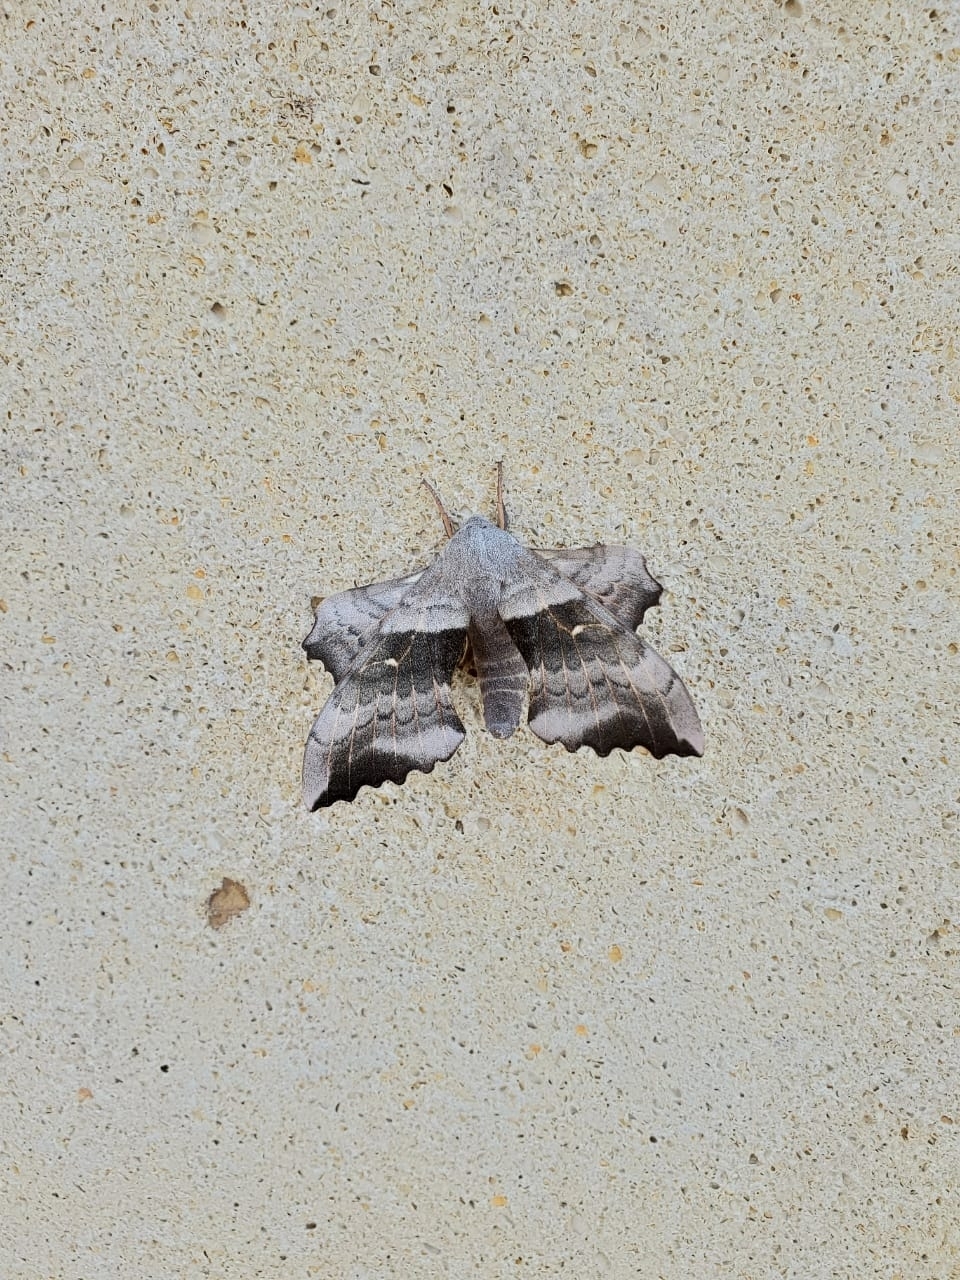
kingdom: Animalia
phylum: Arthropoda
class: Insecta
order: Lepidoptera
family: Sphingidae
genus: Laothoe
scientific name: Laothoe populi
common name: Poplar hawk-moth
